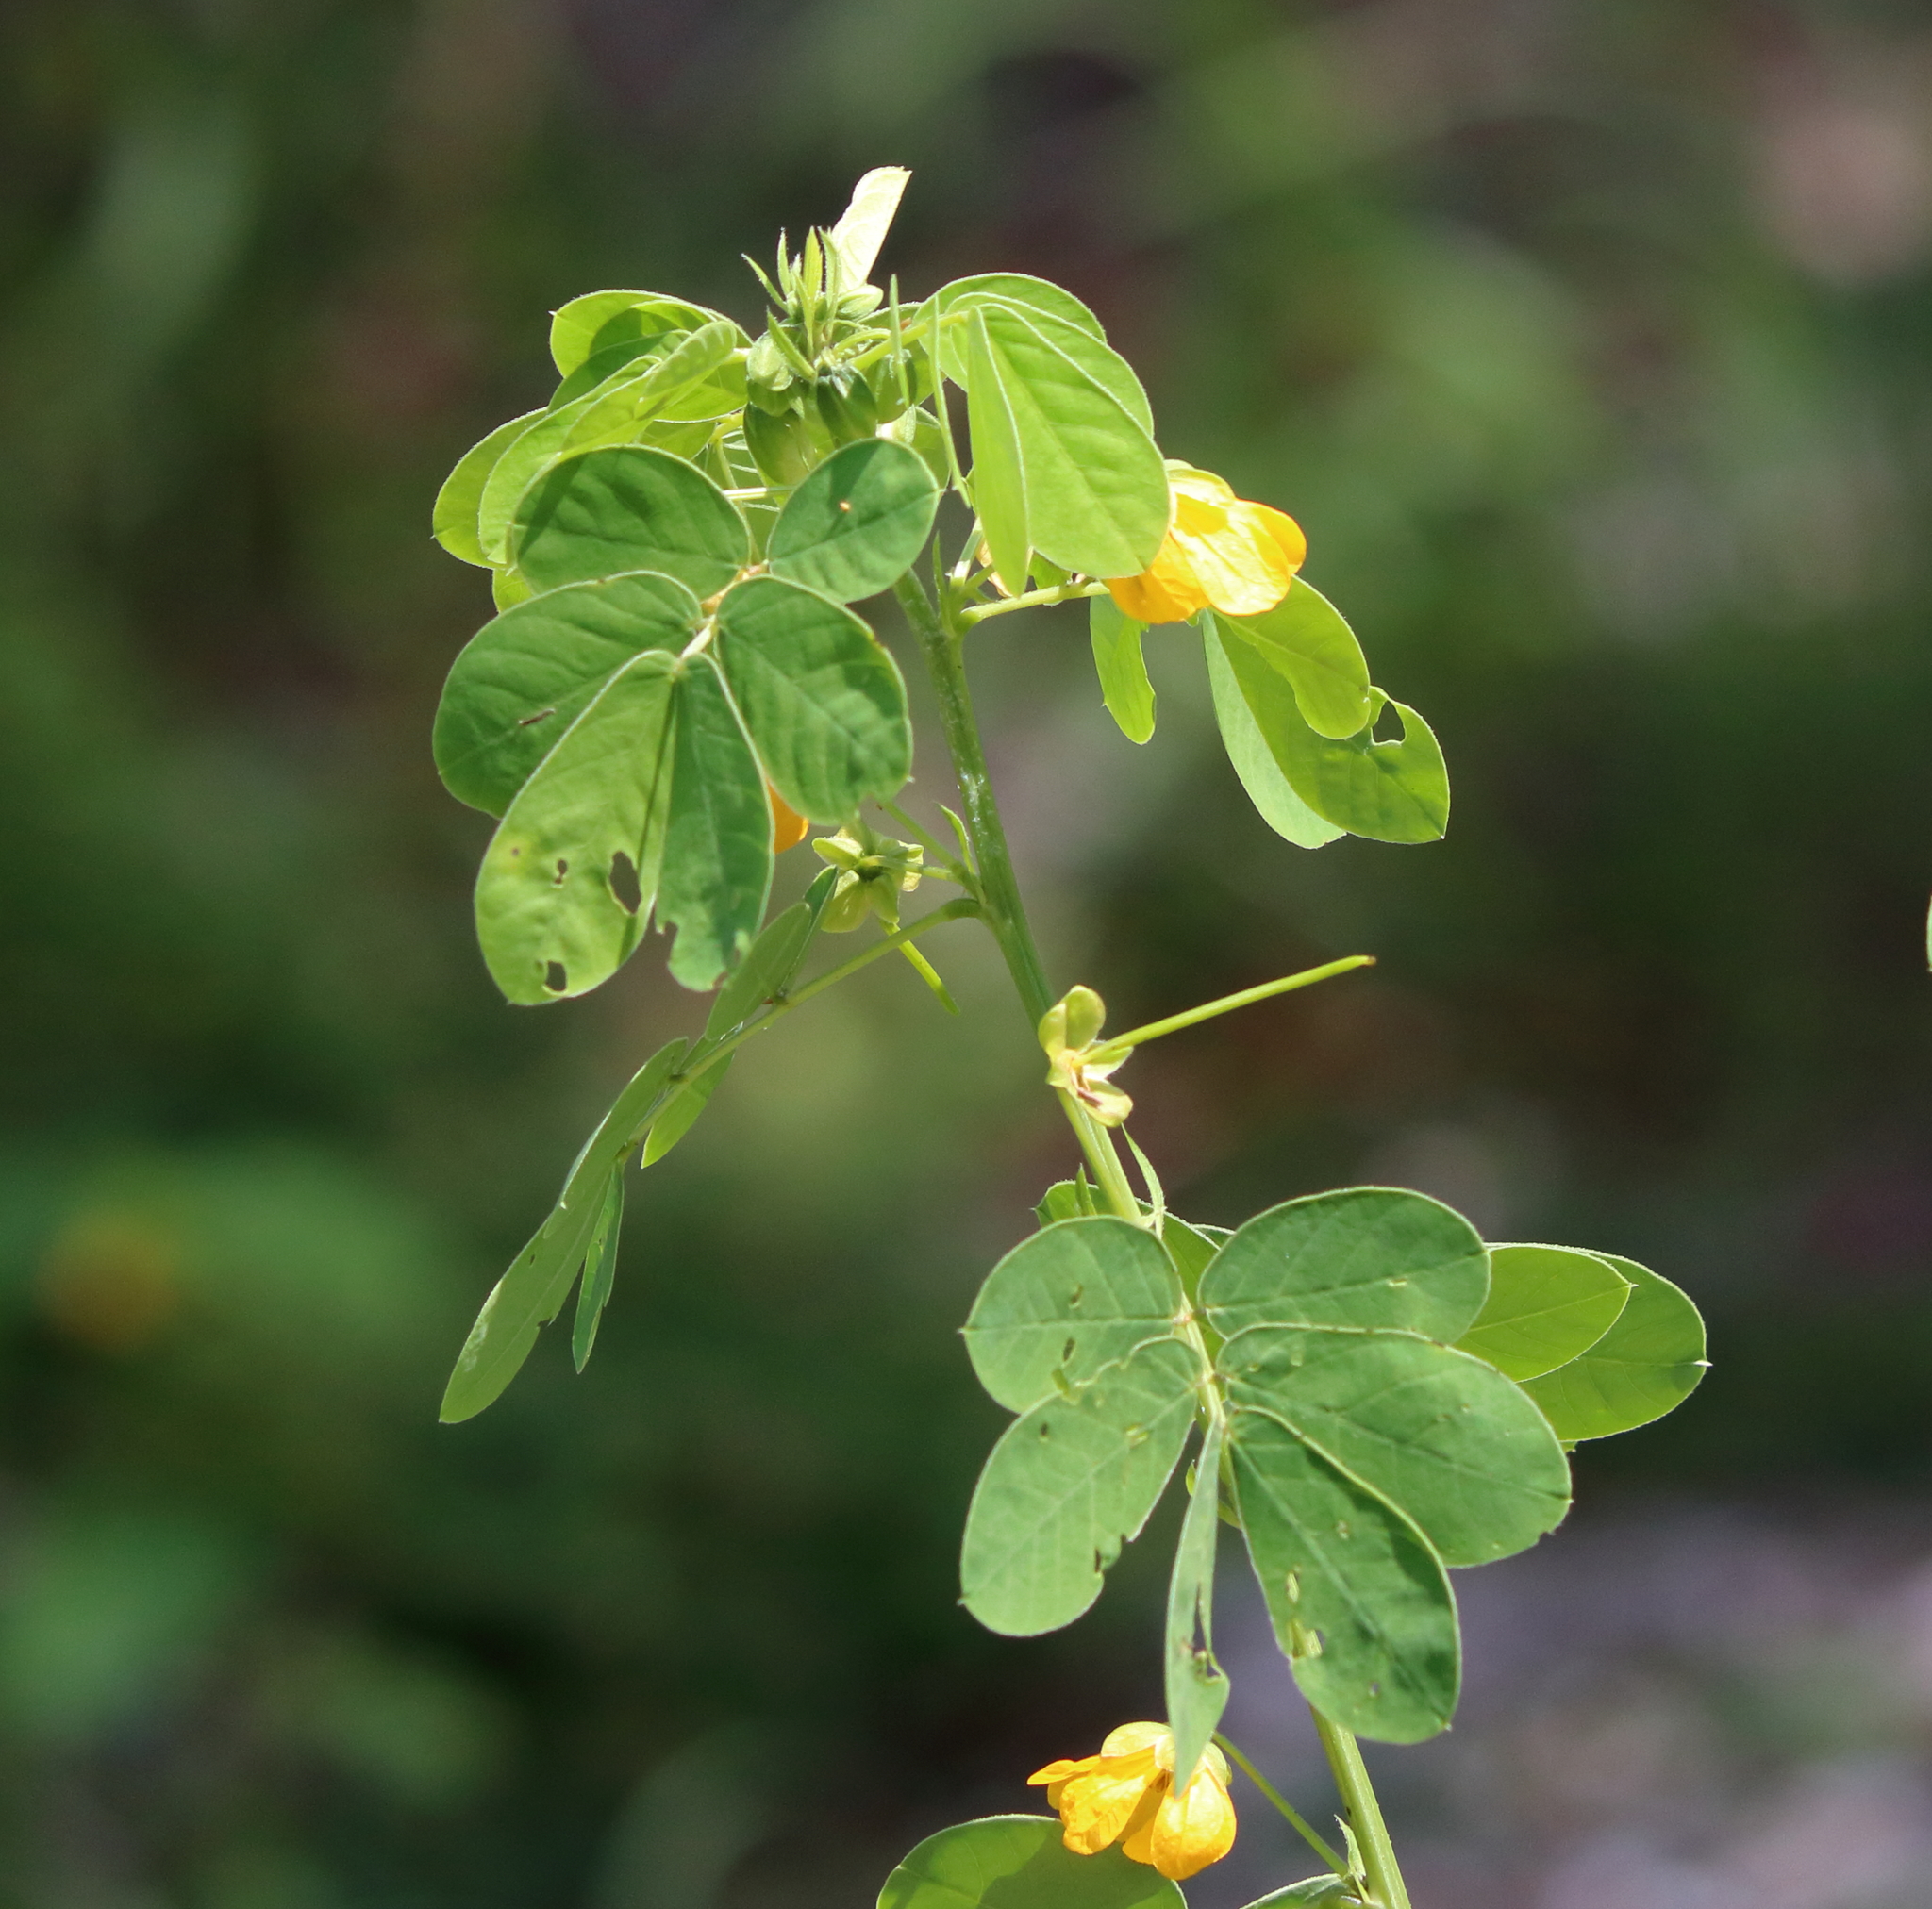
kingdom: Plantae
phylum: Tracheophyta
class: Magnoliopsida
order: Fabales
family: Fabaceae
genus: Senna
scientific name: Senna obtusifolia
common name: Java-bean
